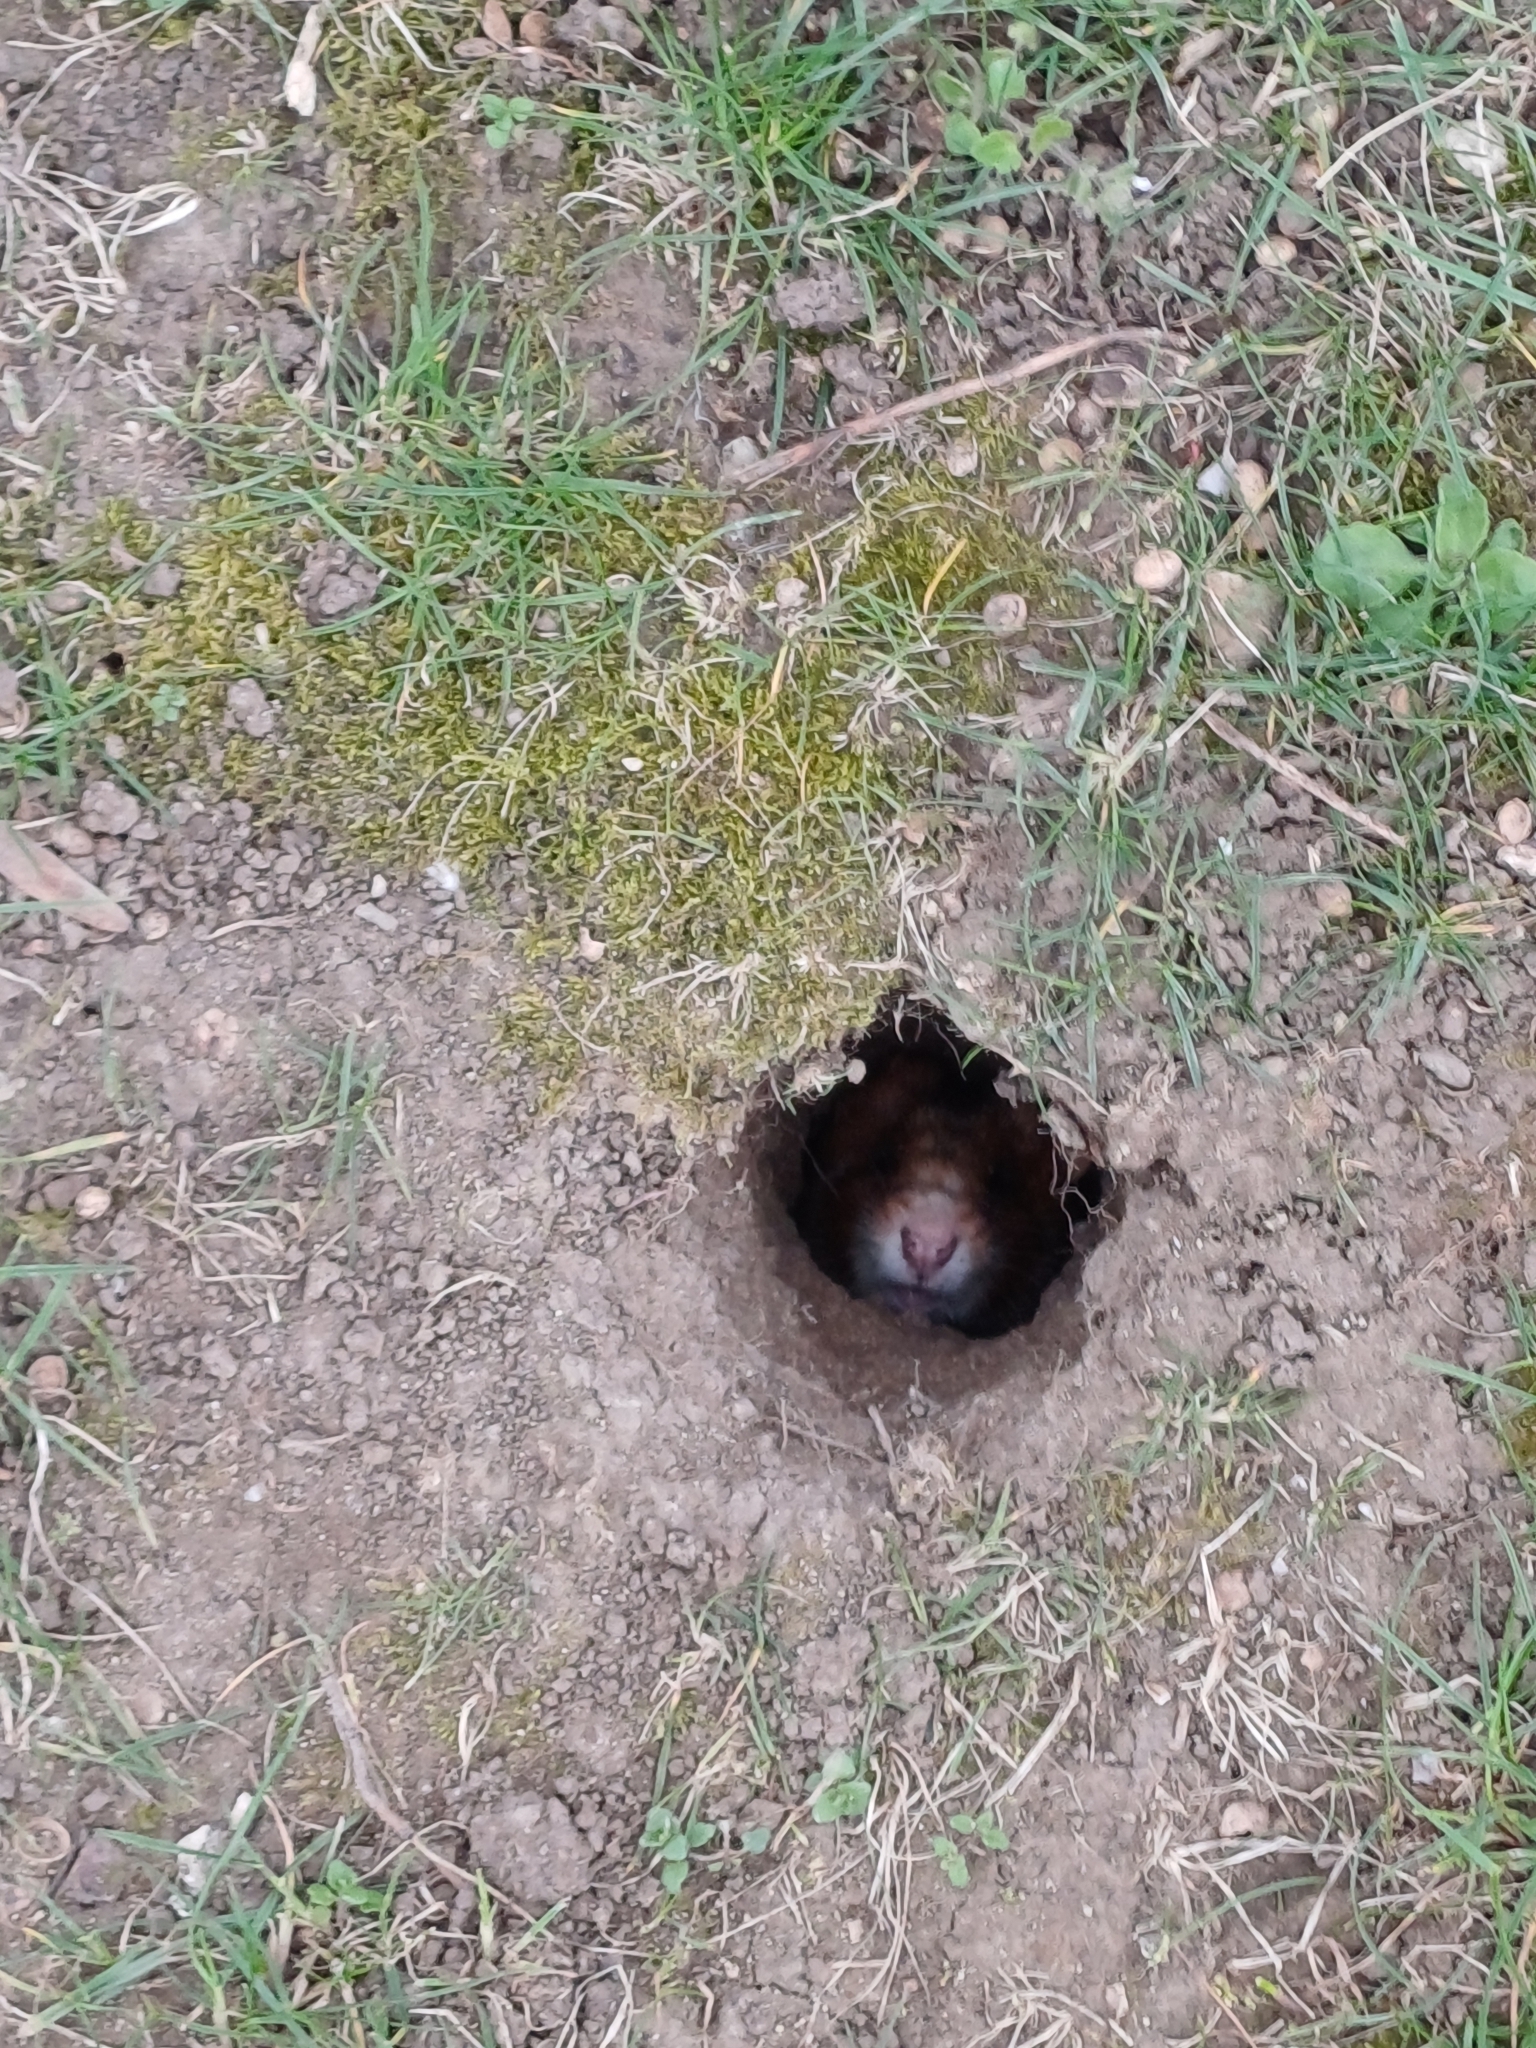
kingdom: Animalia
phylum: Chordata
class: Mammalia
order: Rodentia
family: Cricetidae
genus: Cricetus
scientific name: Cricetus cricetus
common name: Common hamster
